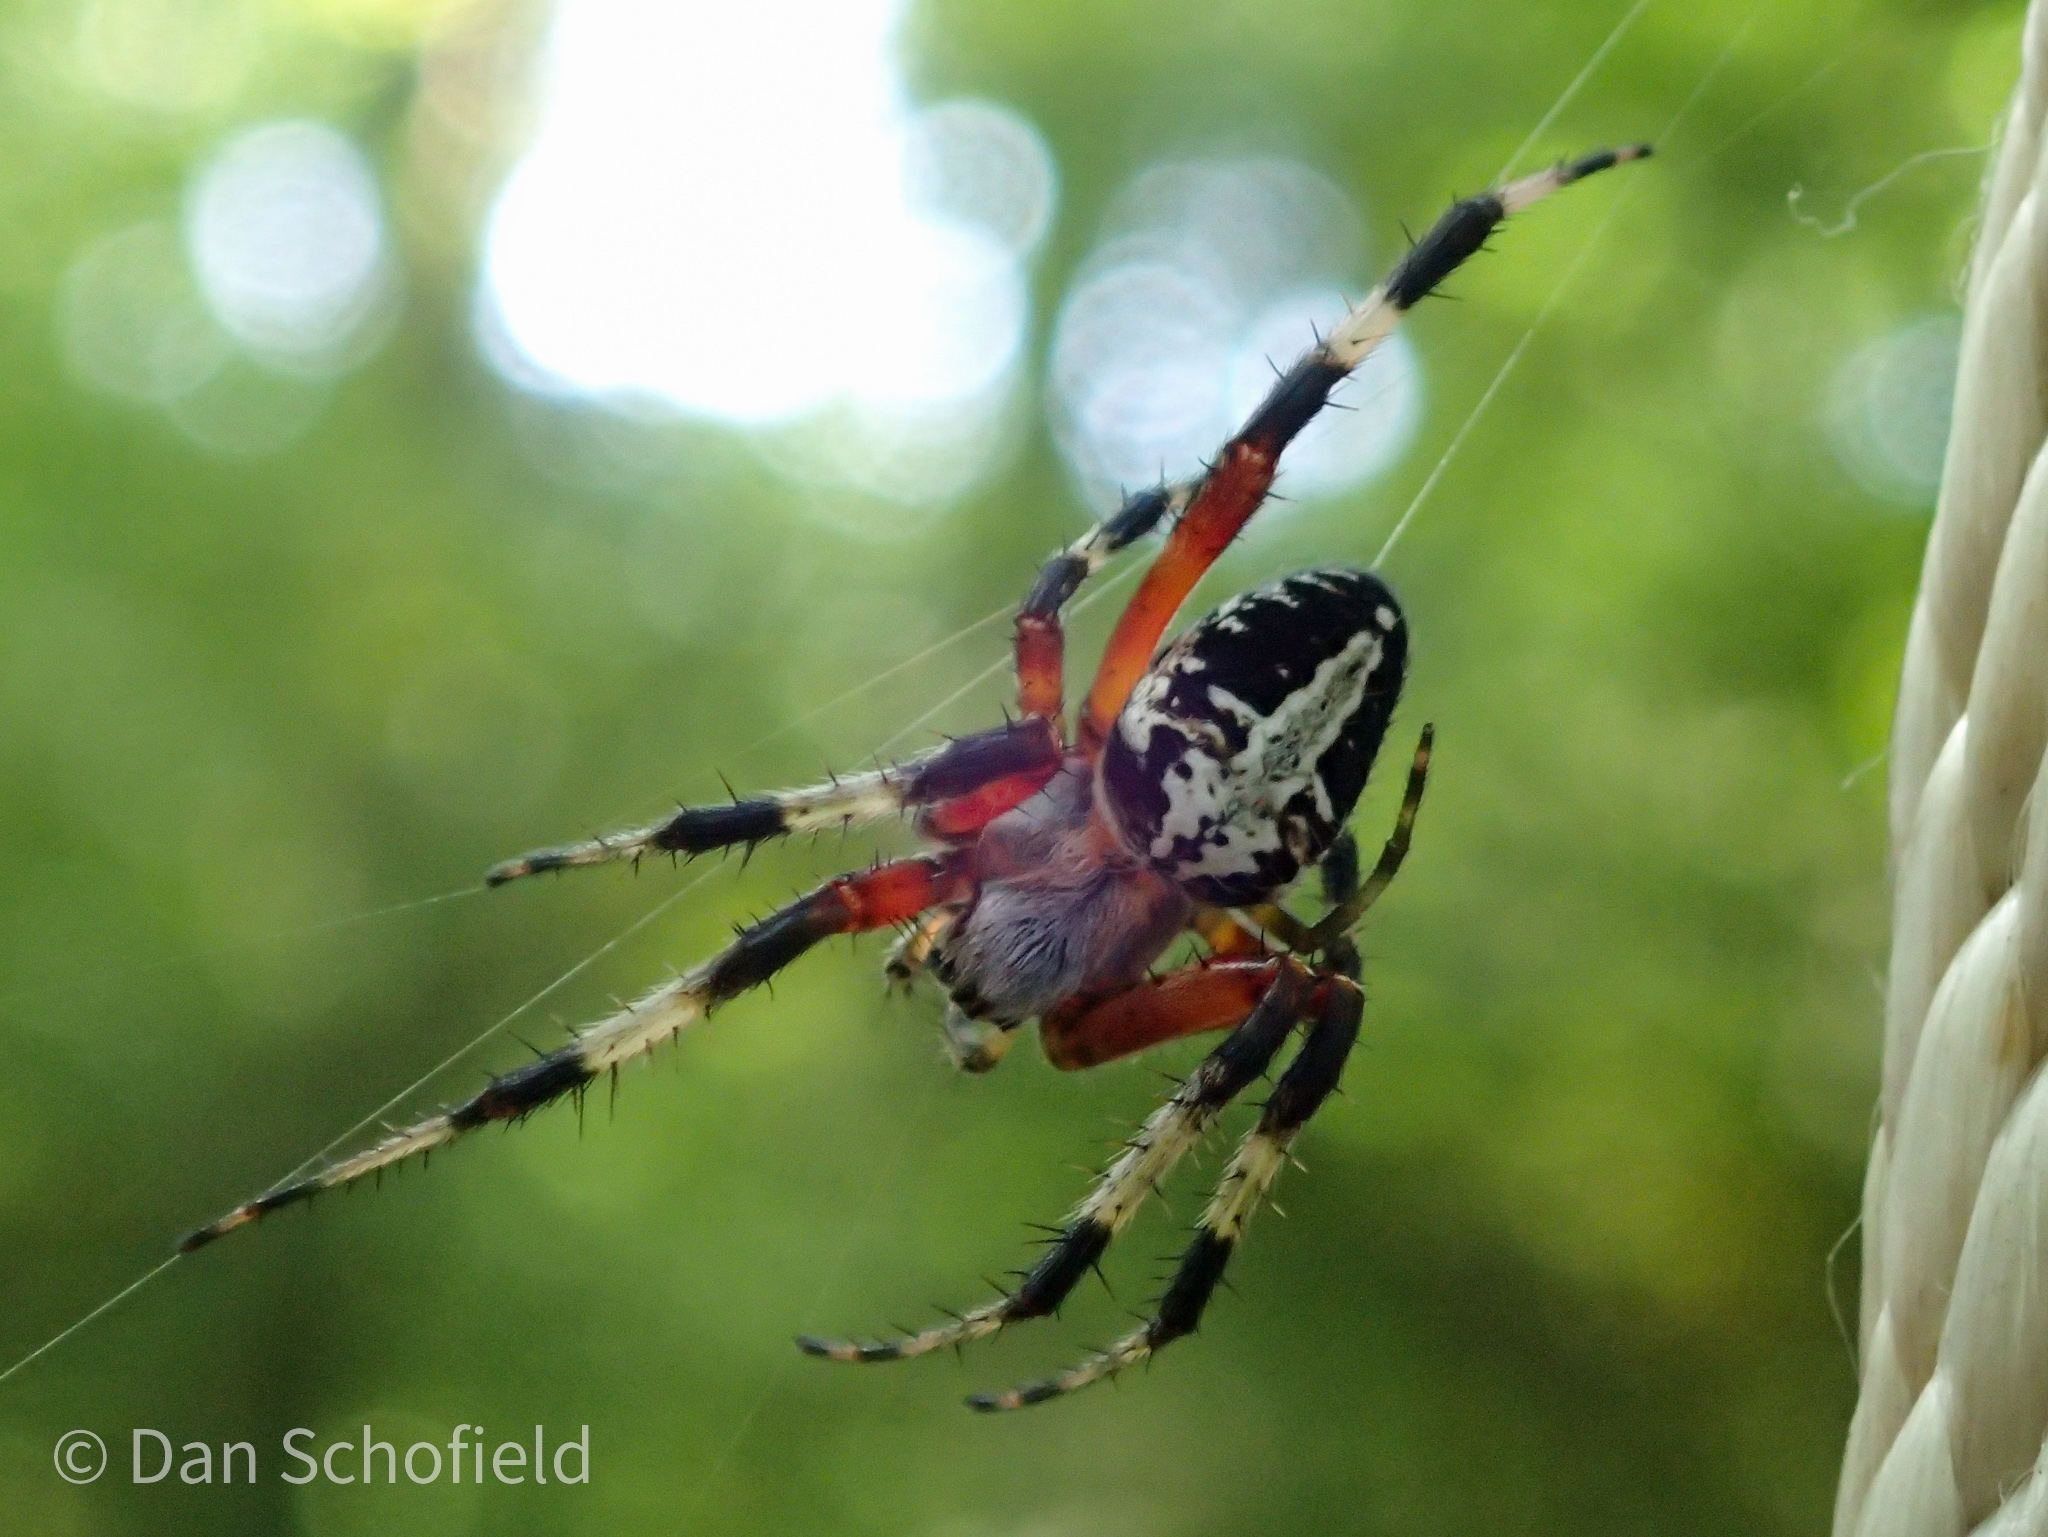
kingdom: Animalia
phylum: Arthropoda
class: Arachnida
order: Araneae
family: Araneidae
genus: Neoscona
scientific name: Neoscona domiciliorum
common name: Red-femured spotted orbweaver
